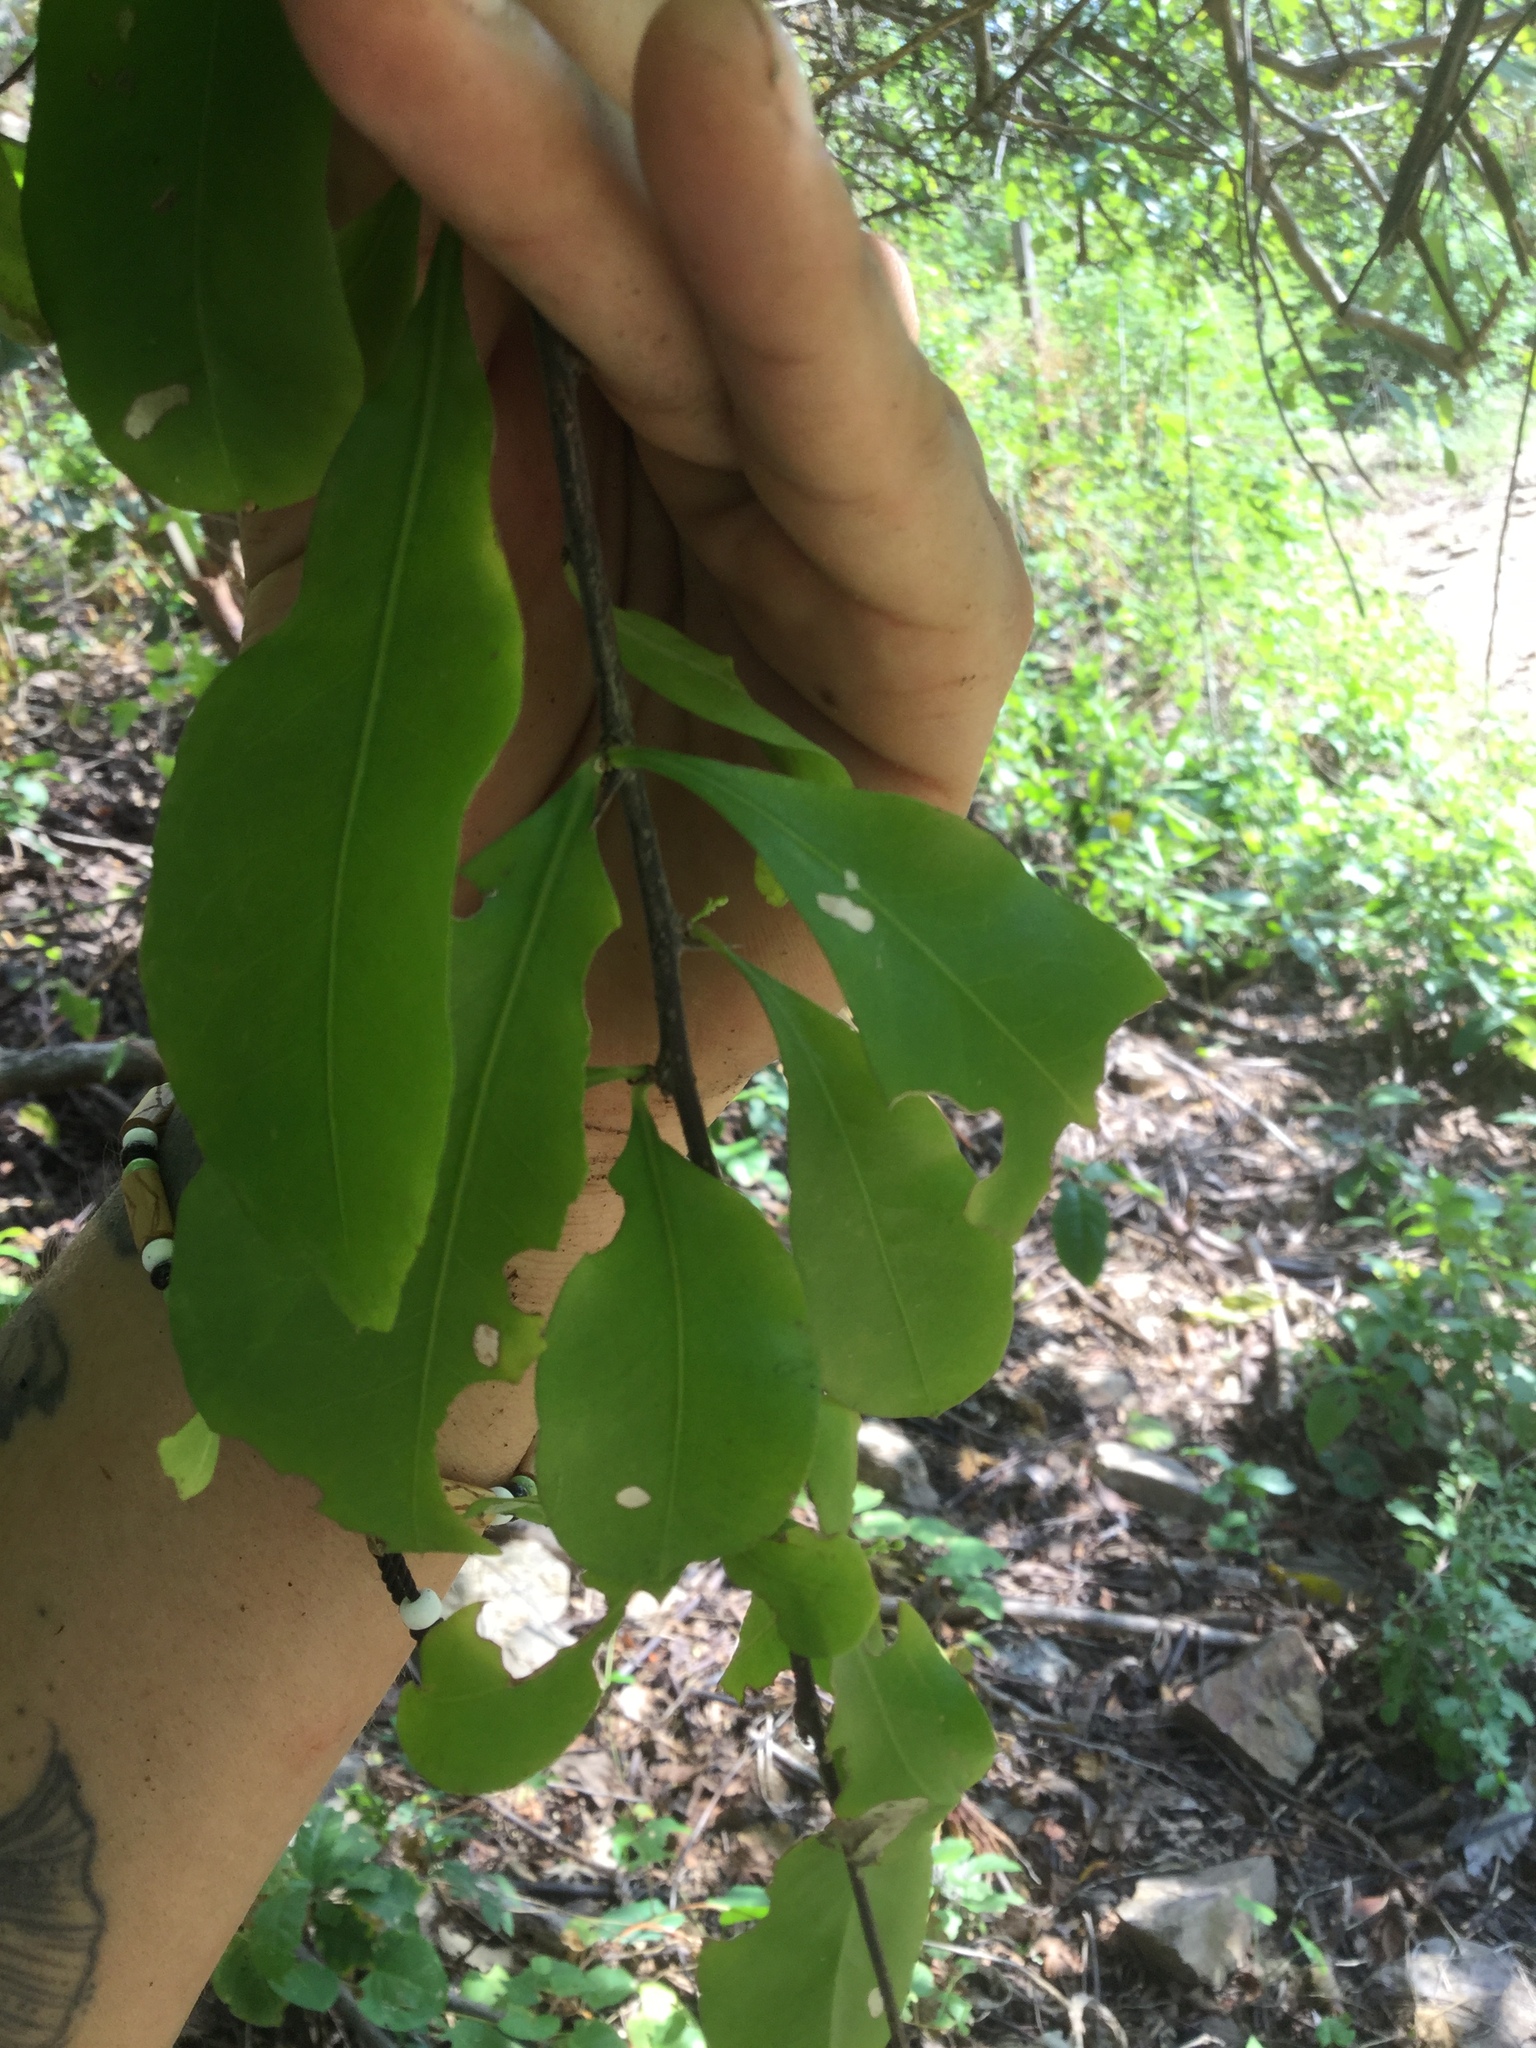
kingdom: Plantae
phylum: Tracheophyta
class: Magnoliopsida
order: Caryophyllales
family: Polygonaceae
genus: Podopterus
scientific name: Podopterus mexicanus
